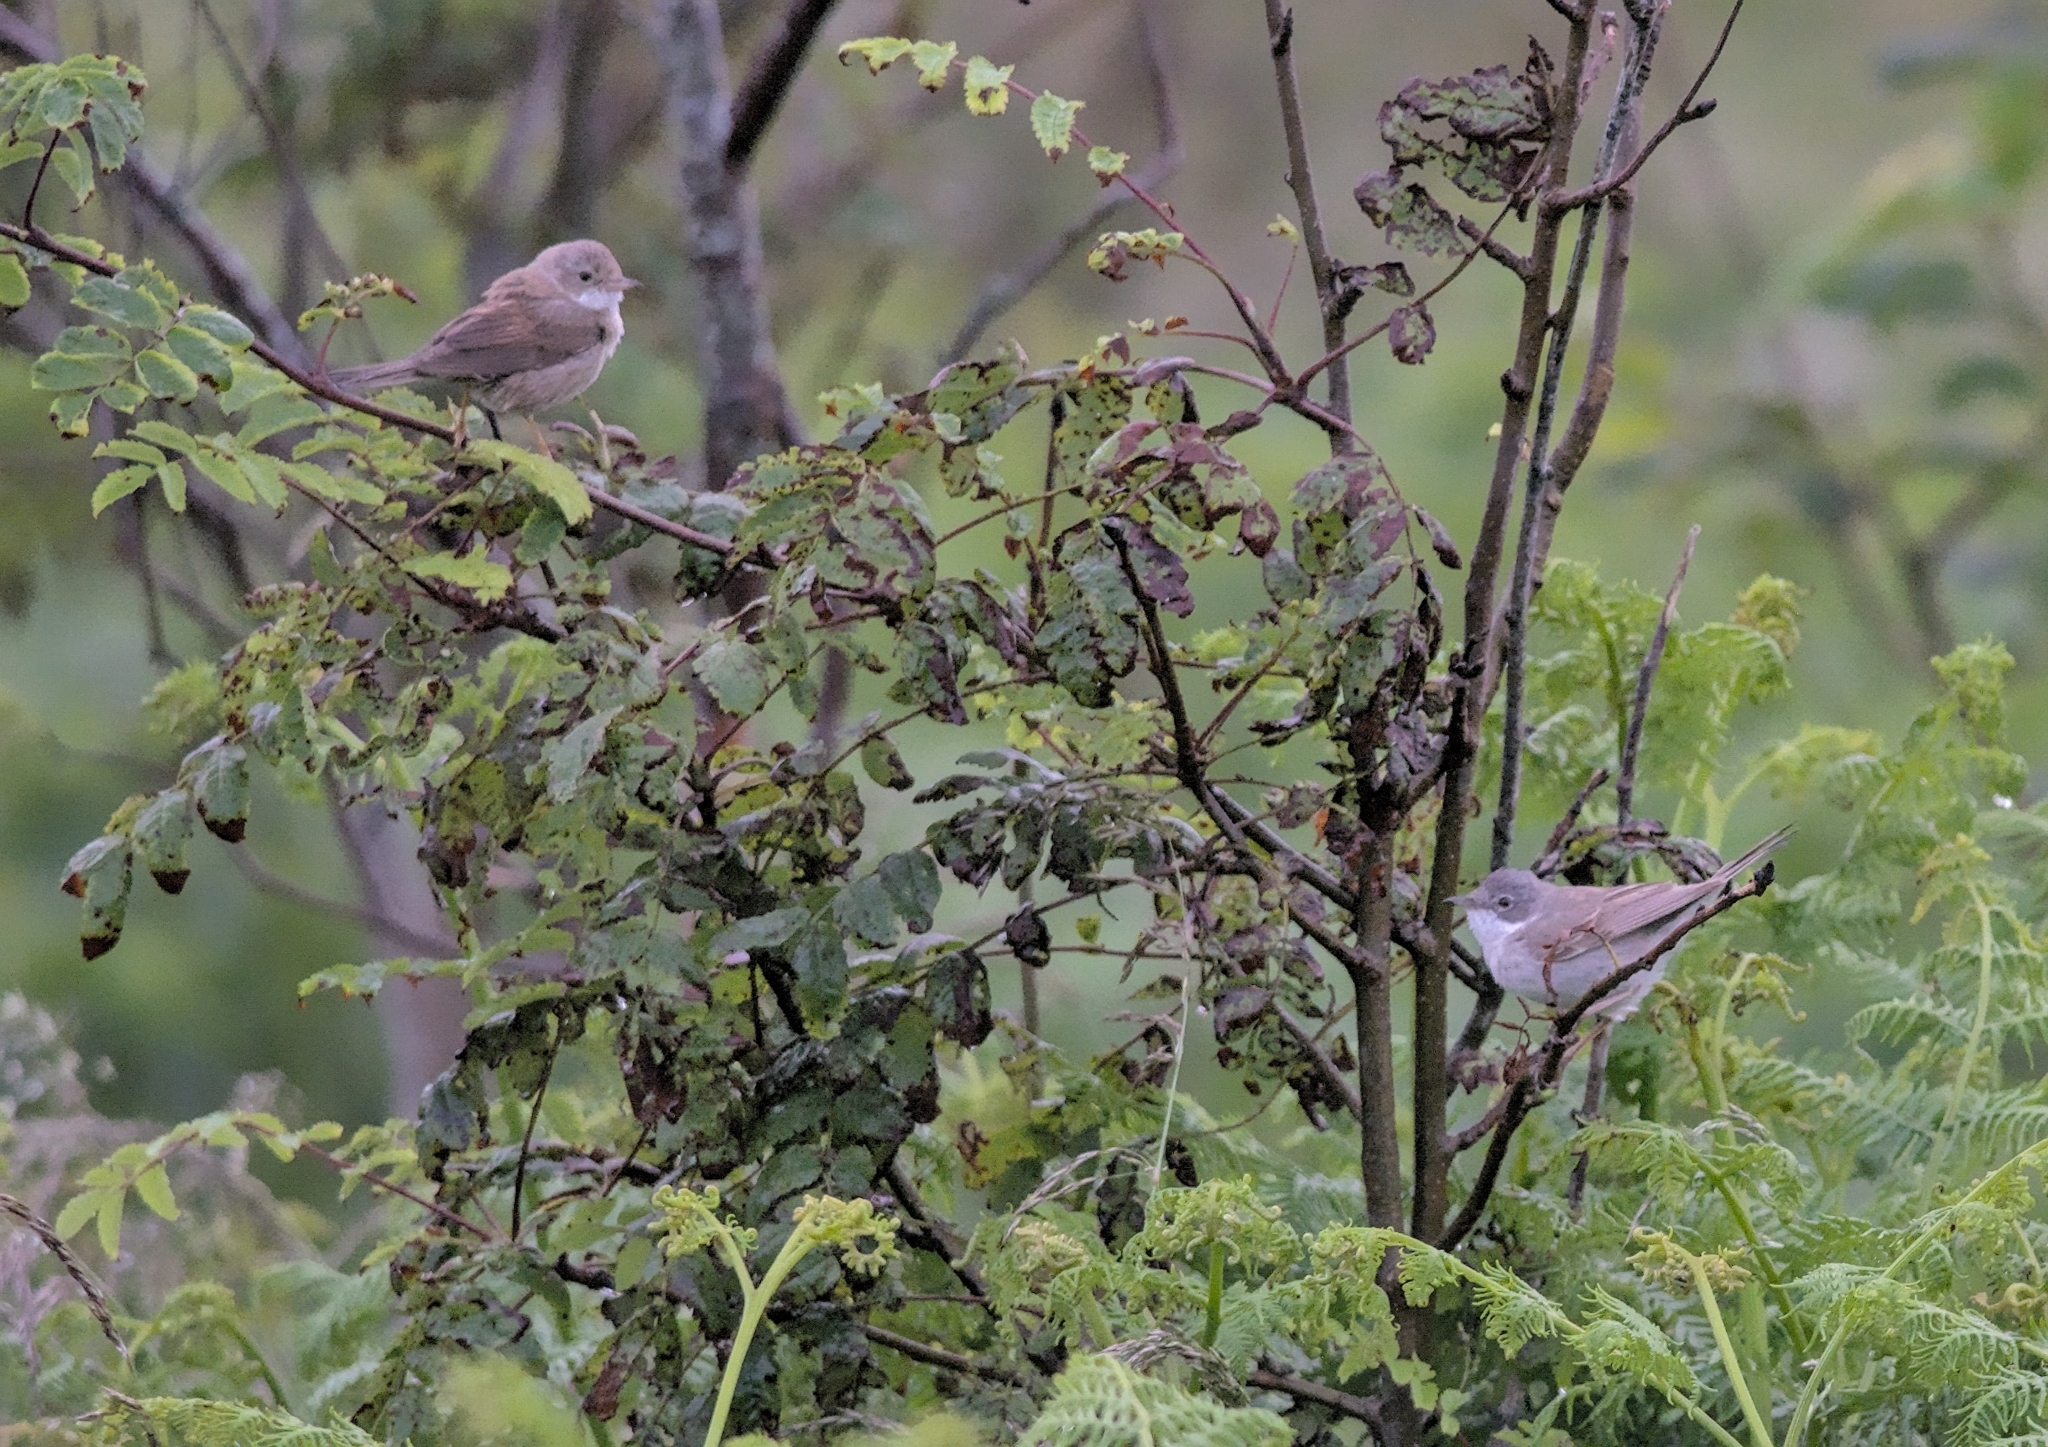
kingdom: Animalia
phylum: Chordata
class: Aves
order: Passeriformes
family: Sylviidae
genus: Sylvia
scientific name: Sylvia communis
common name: Common whitethroat
